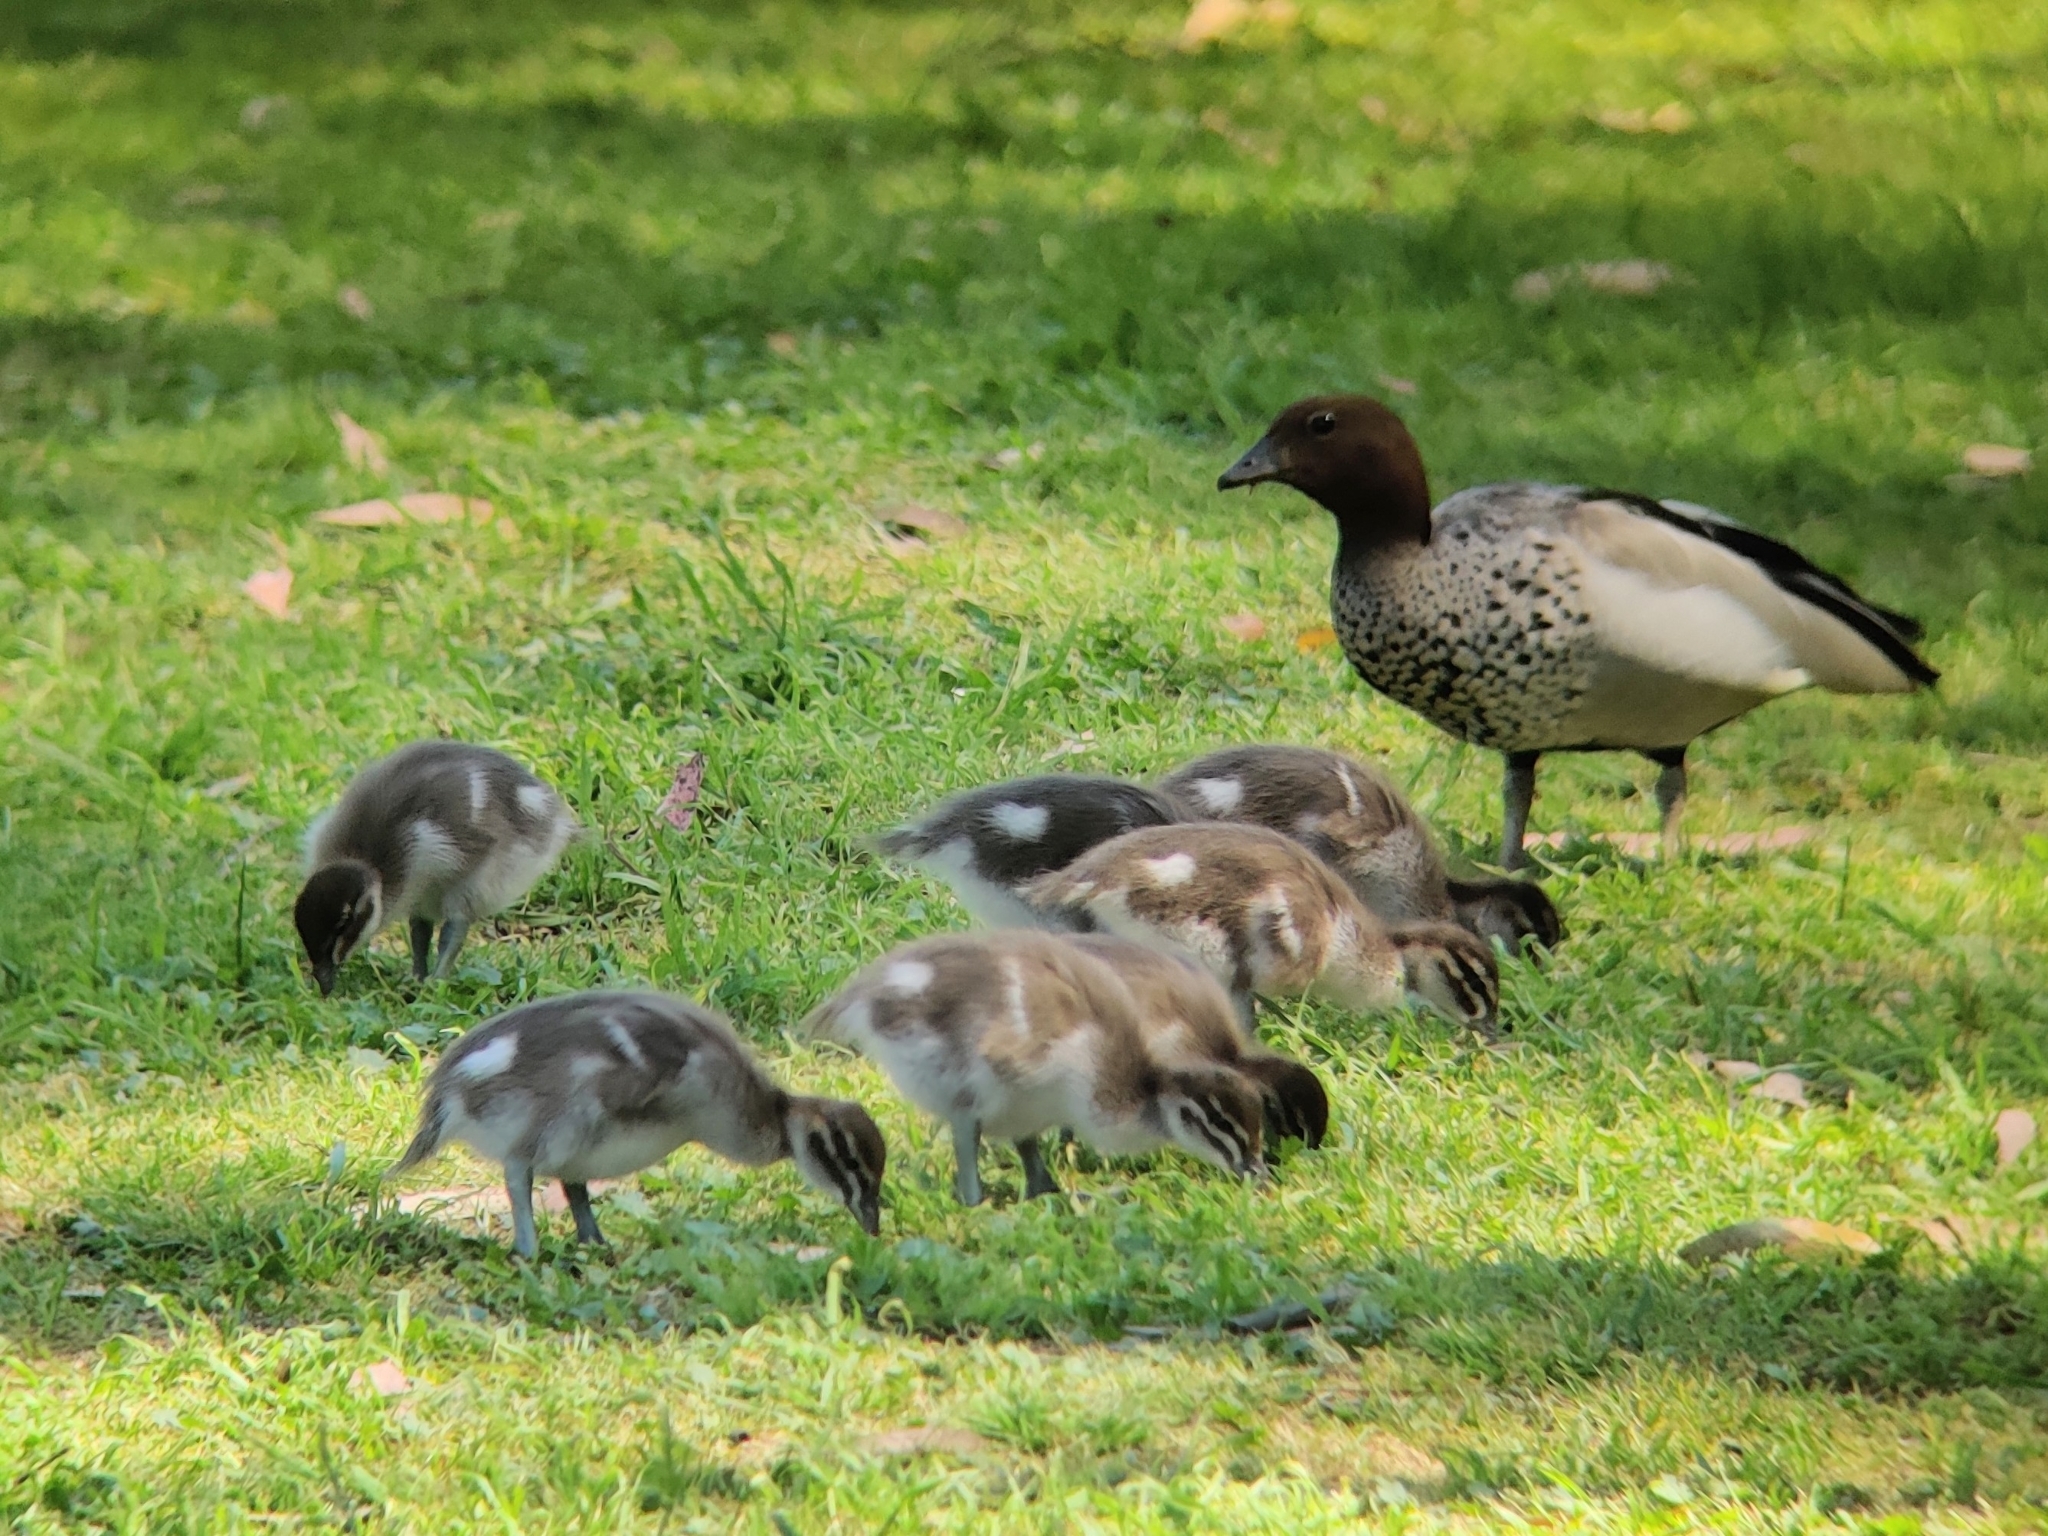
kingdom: Animalia
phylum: Chordata
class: Aves
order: Anseriformes
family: Anatidae
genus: Chenonetta
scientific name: Chenonetta jubata
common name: Maned duck
